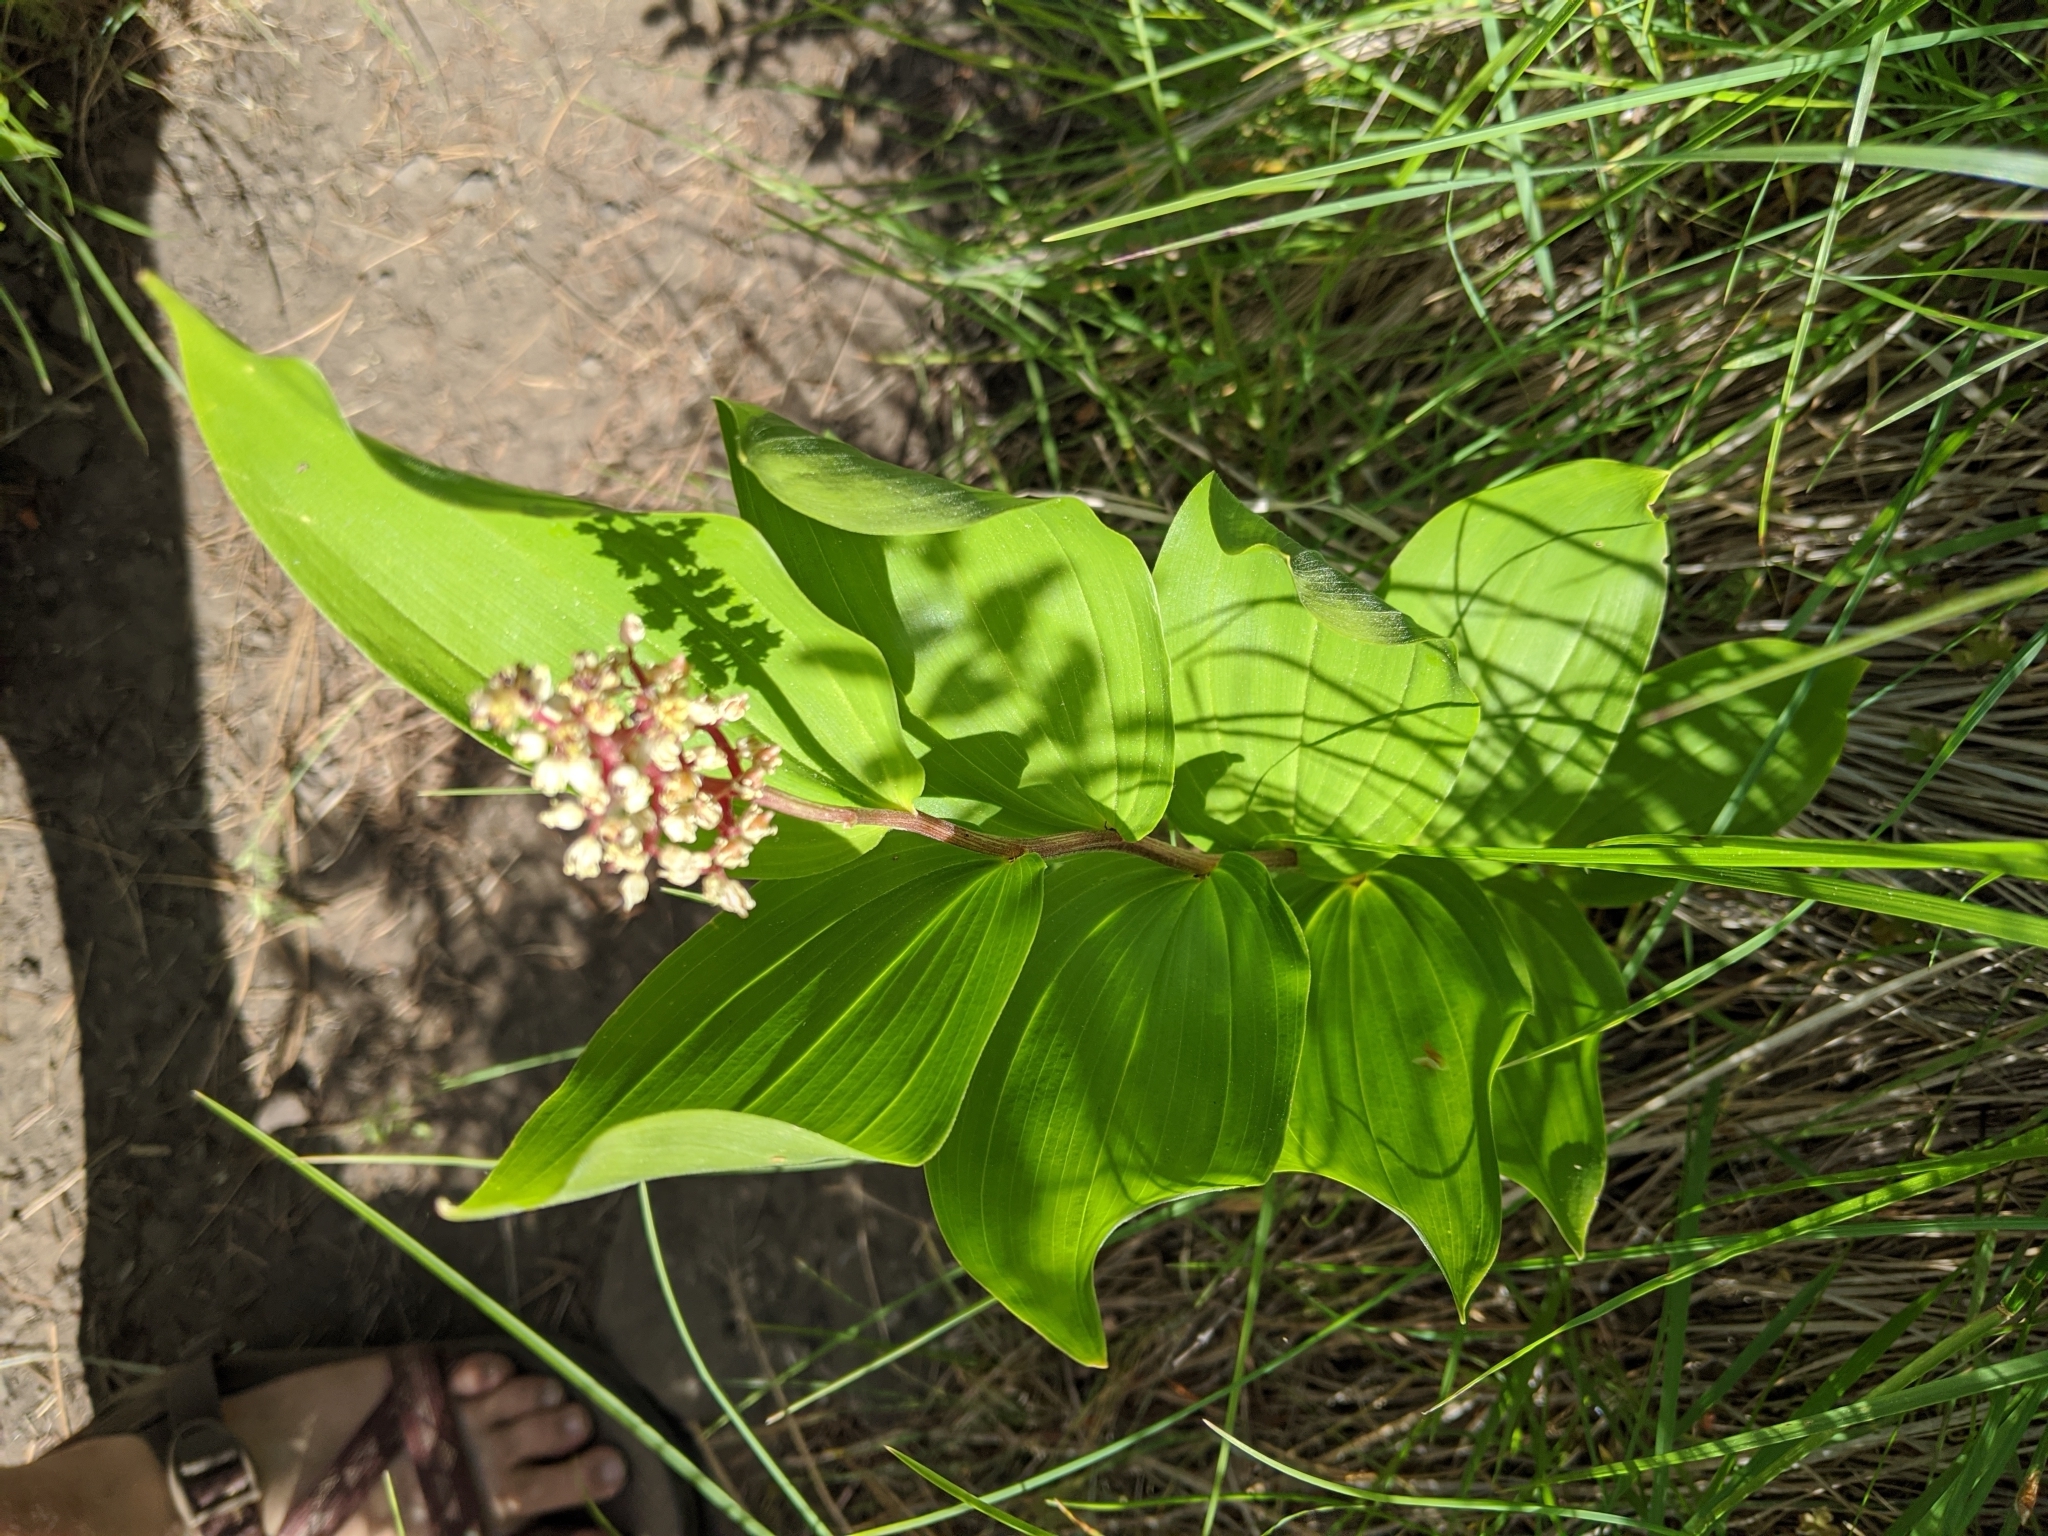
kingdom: Plantae
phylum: Tracheophyta
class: Liliopsida
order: Asparagales
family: Asparagaceae
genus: Maianthemum
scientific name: Maianthemum racemosum
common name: False spikenard
